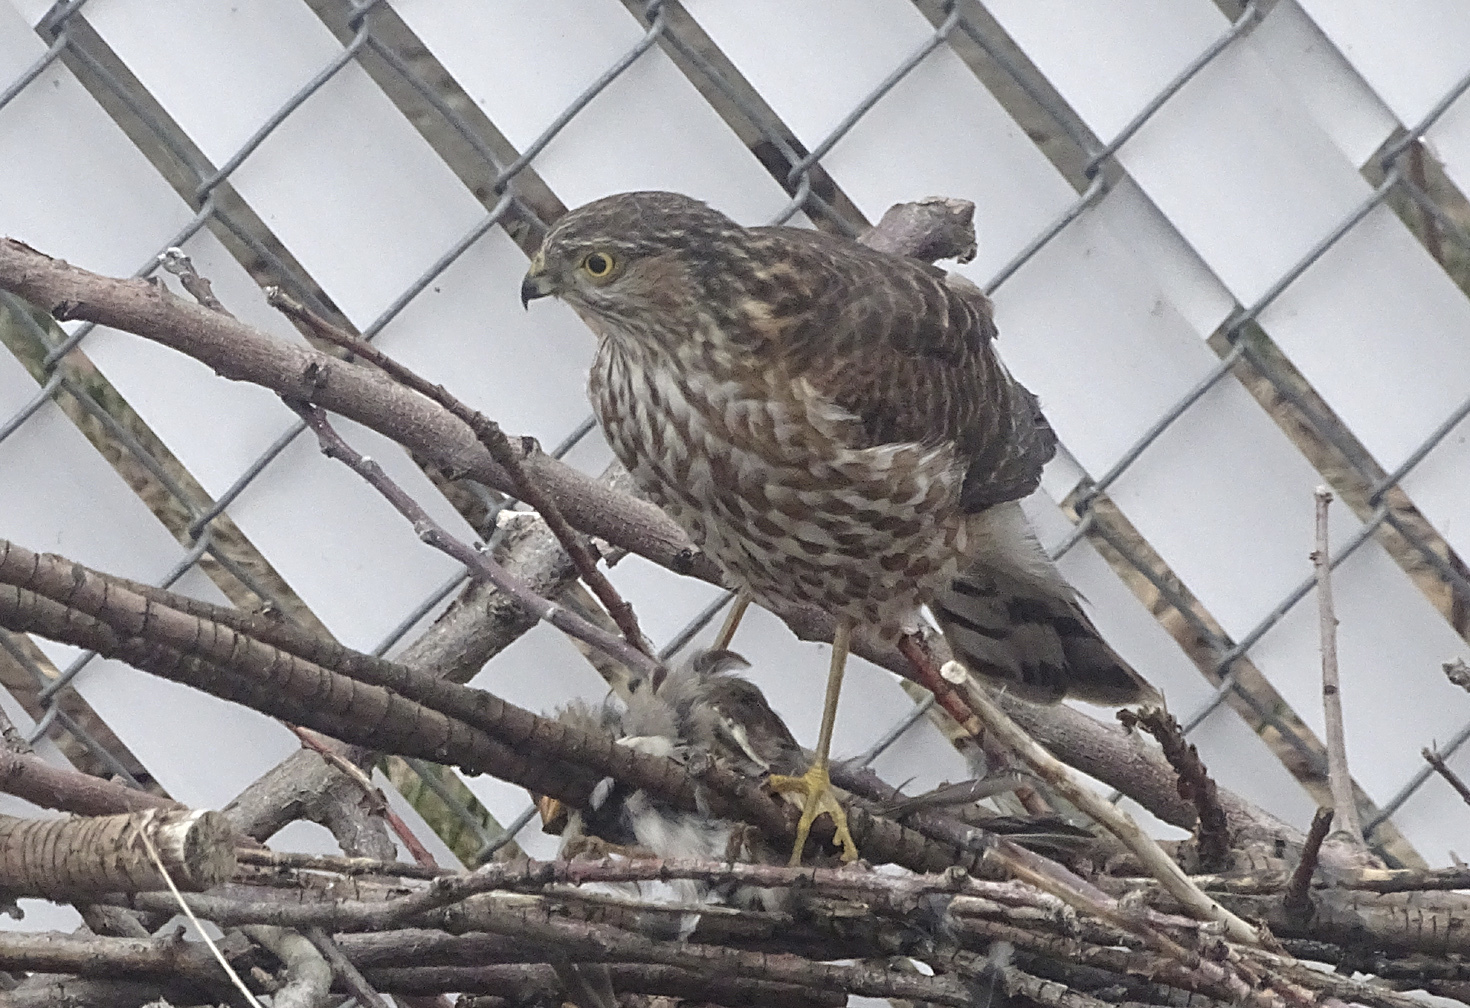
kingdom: Animalia
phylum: Chordata
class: Aves
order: Accipitriformes
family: Accipitridae
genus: Accipiter
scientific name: Accipiter striatus
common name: Sharp-shinned hawk
